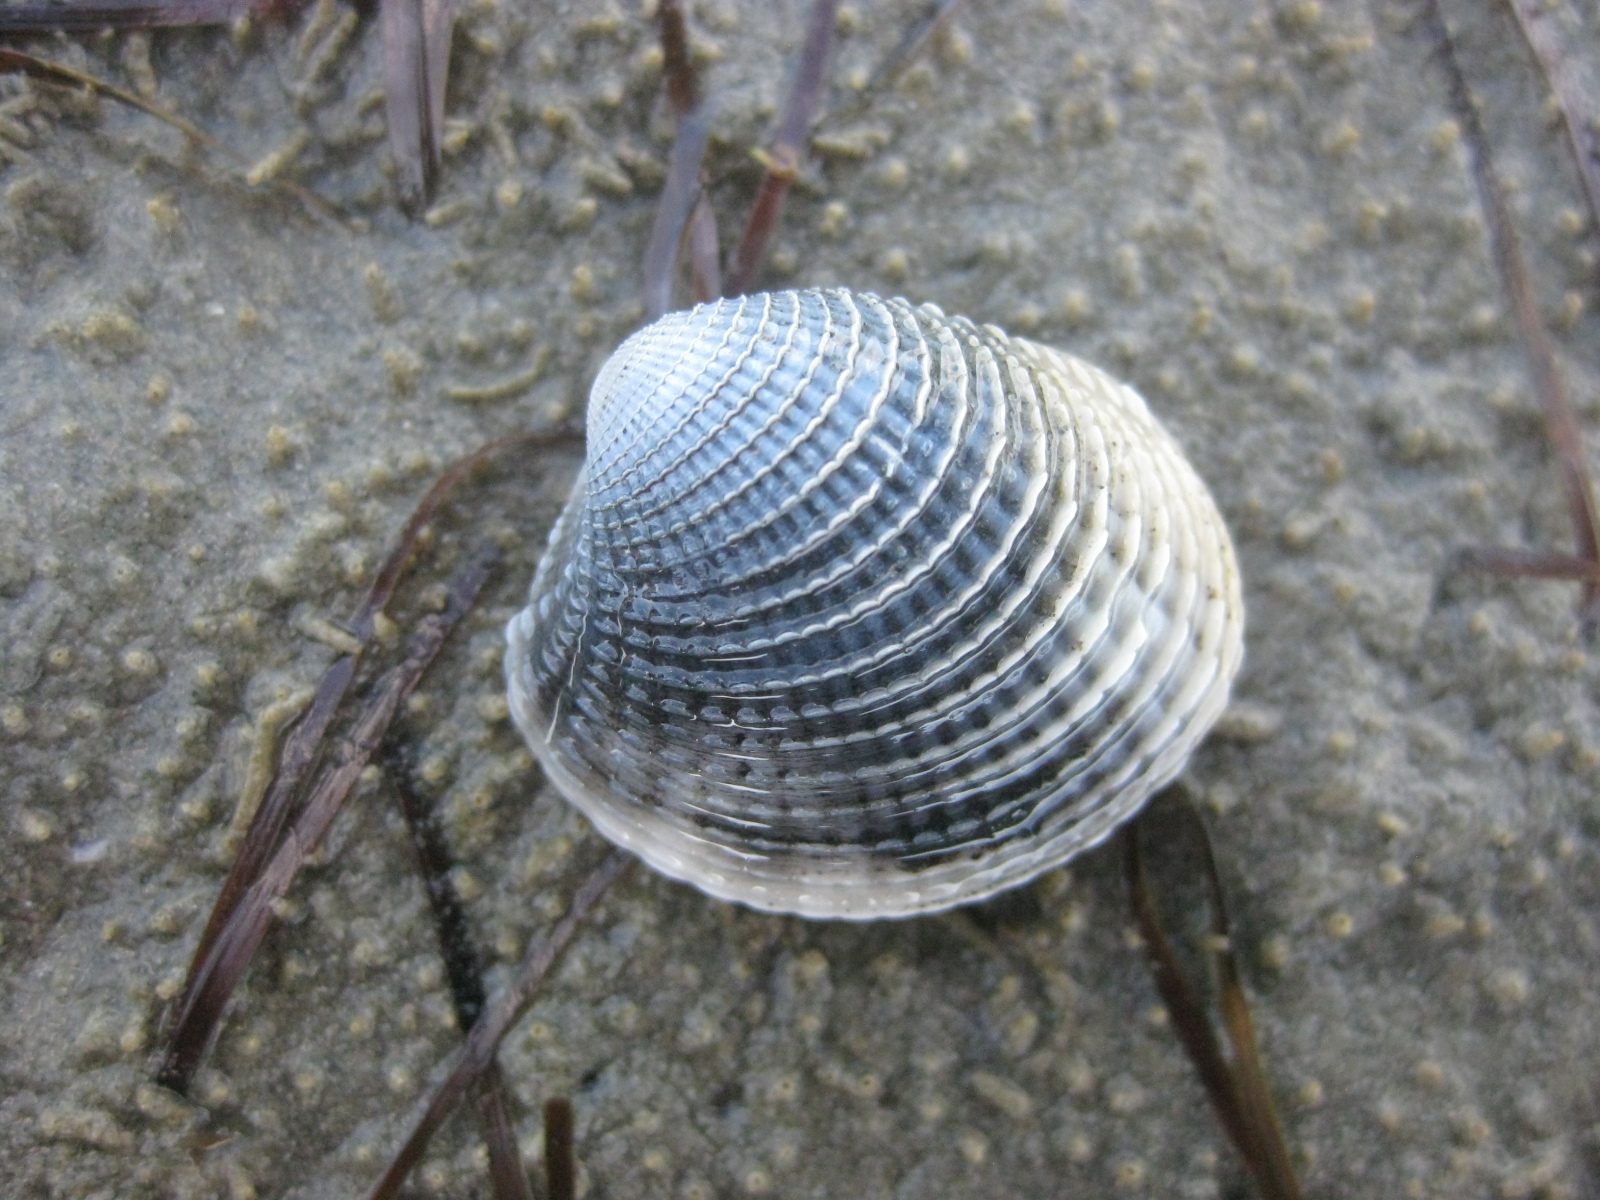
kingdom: Animalia
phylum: Mollusca
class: Bivalvia
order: Venerida
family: Veneridae
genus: Austrovenus
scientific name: Austrovenus stutchburyi
